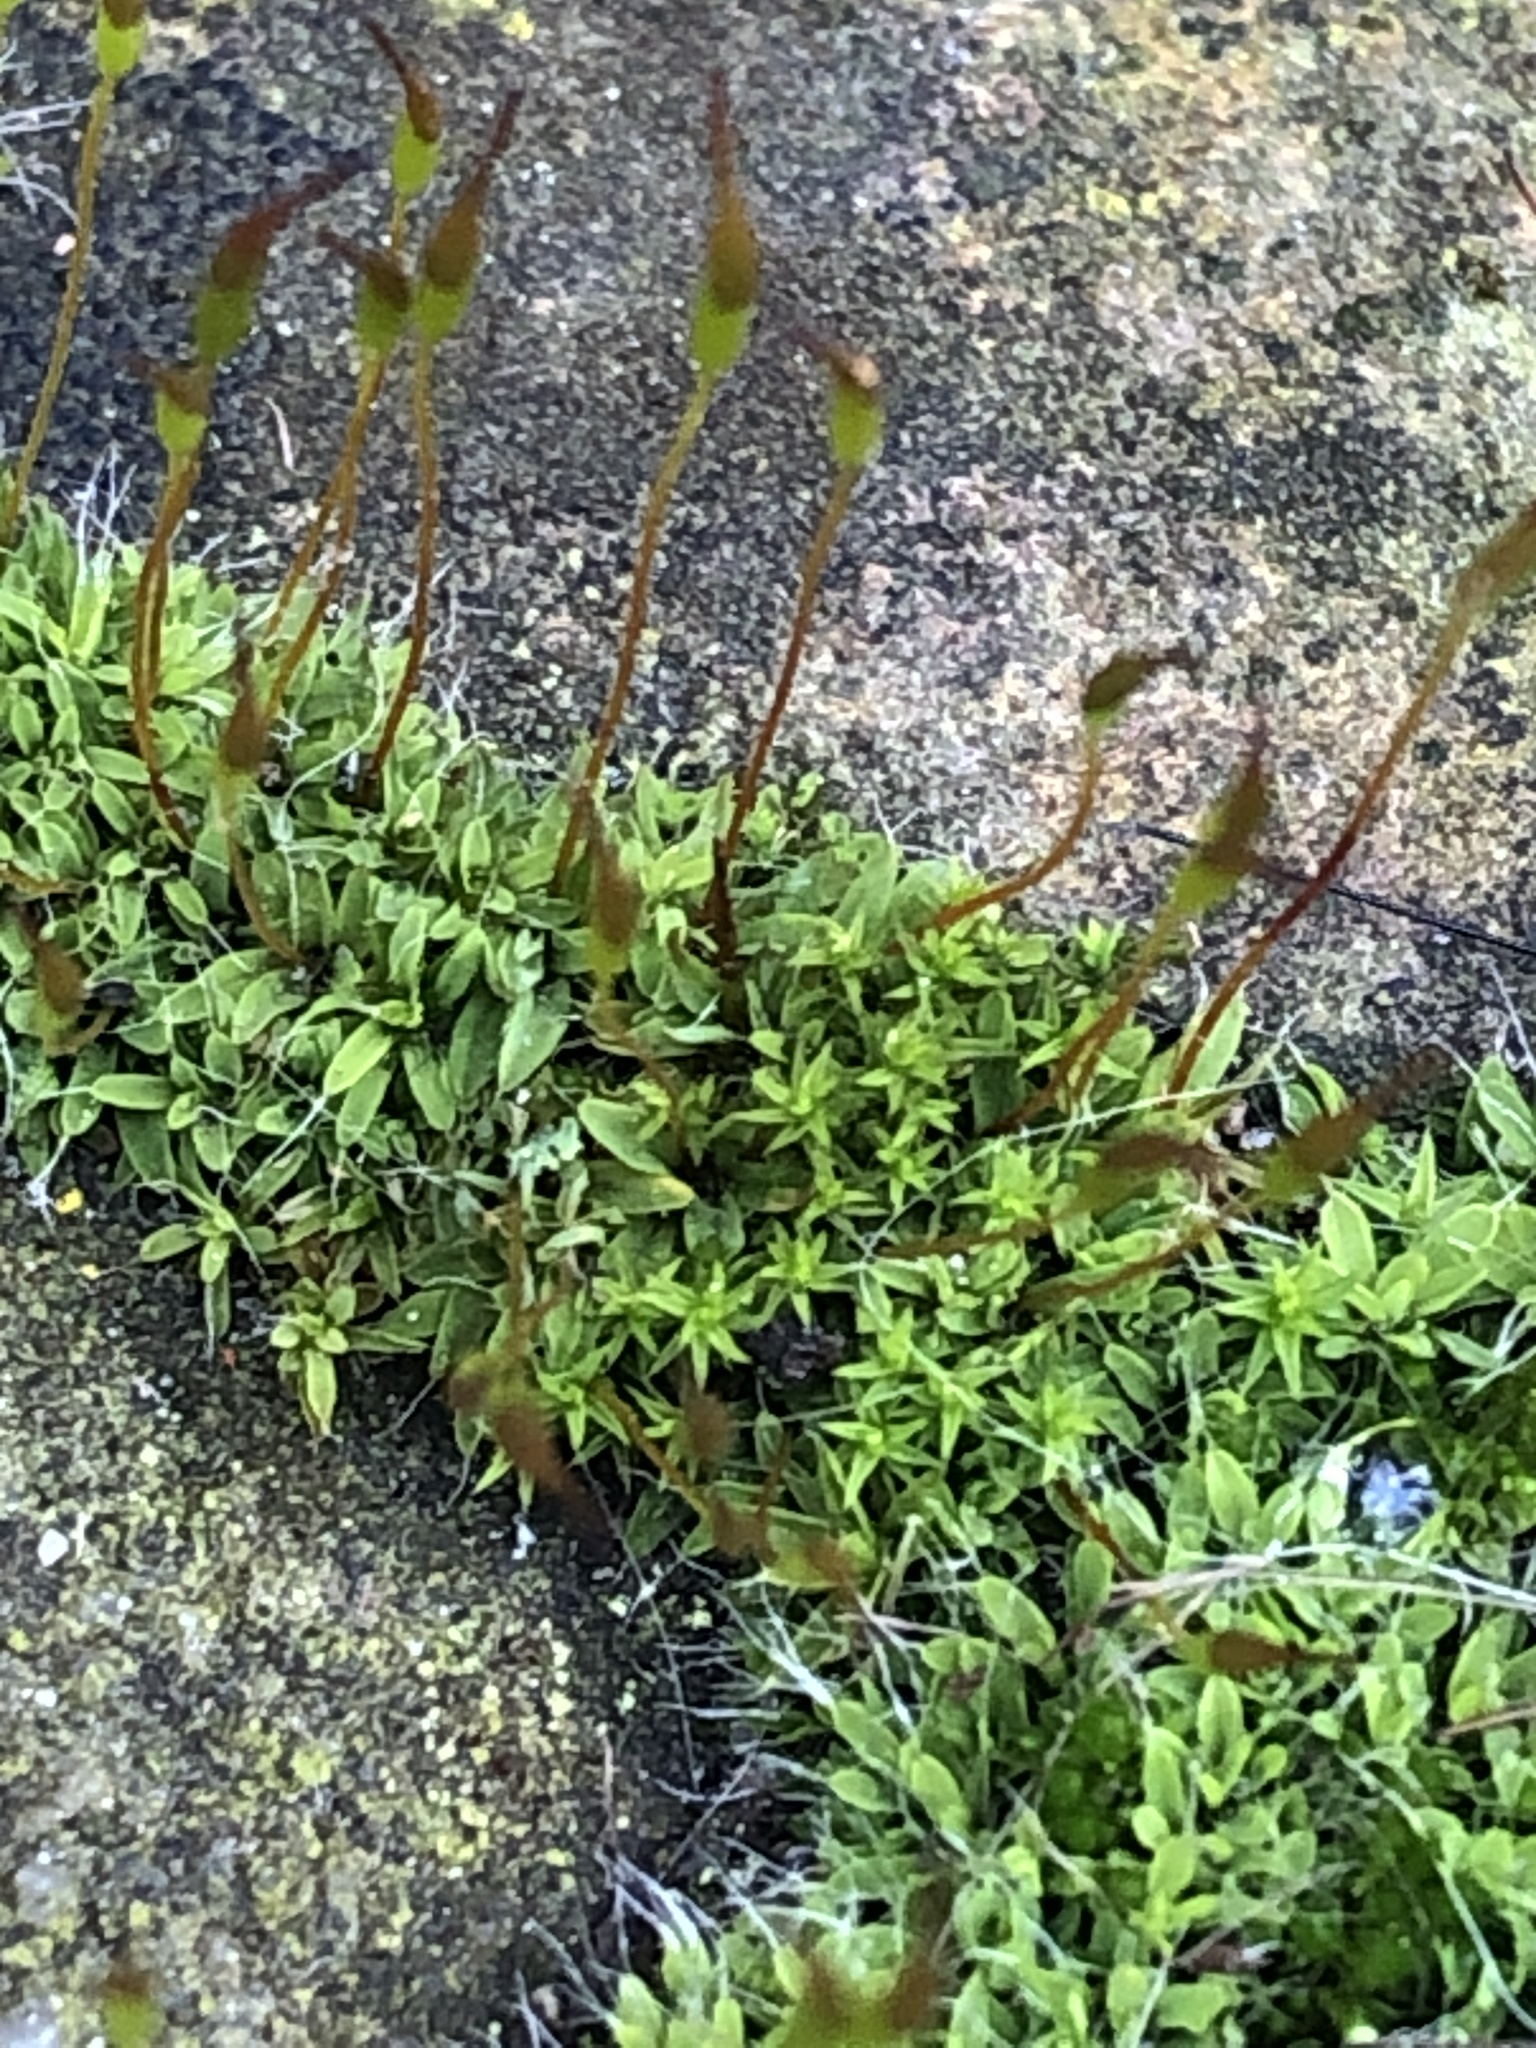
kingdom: Plantae
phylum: Bryophyta
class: Bryopsida
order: Pottiales
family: Pottiaceae
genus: Tortula
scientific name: Tortula muralis
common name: Wall screw-moss
